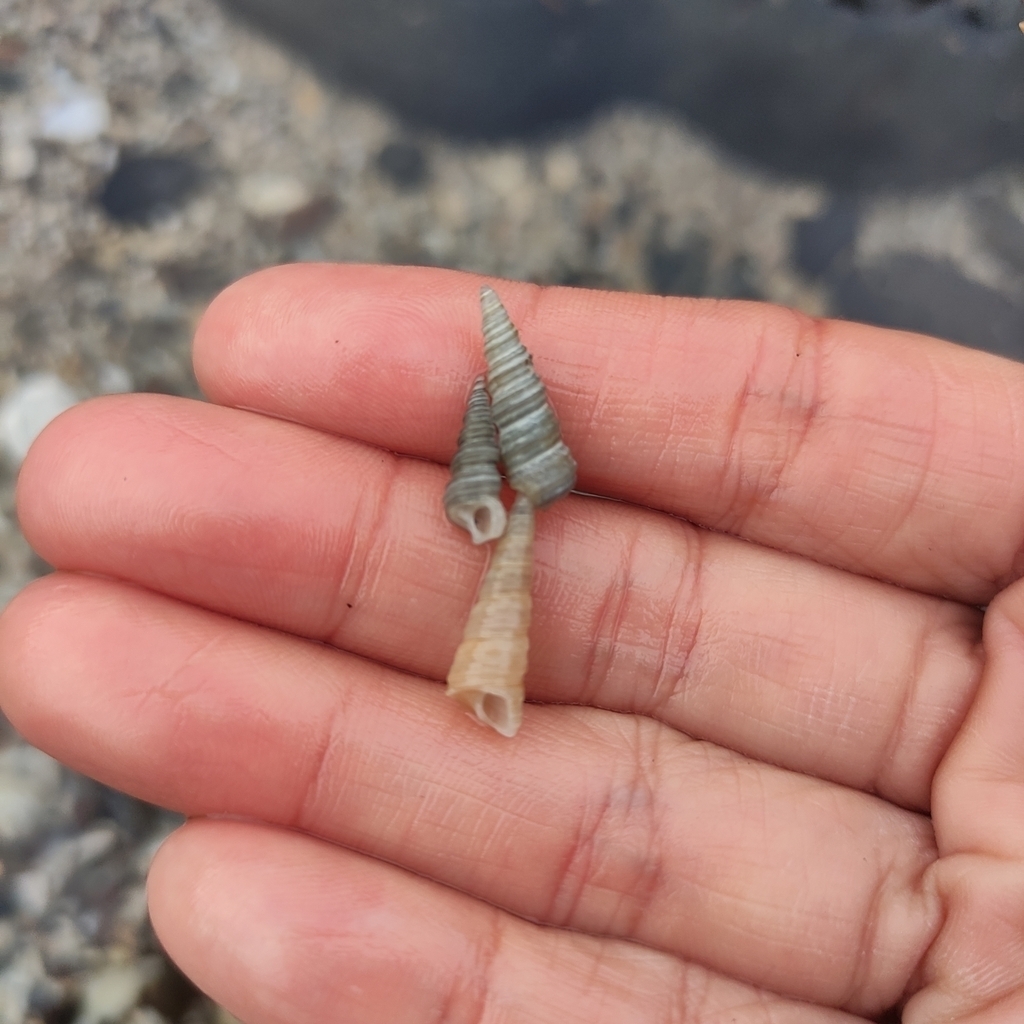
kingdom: Animalia
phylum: Mollusca
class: Gastropoda
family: Turritellidae
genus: Maoricolpus
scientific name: Maoricolpus roseus
